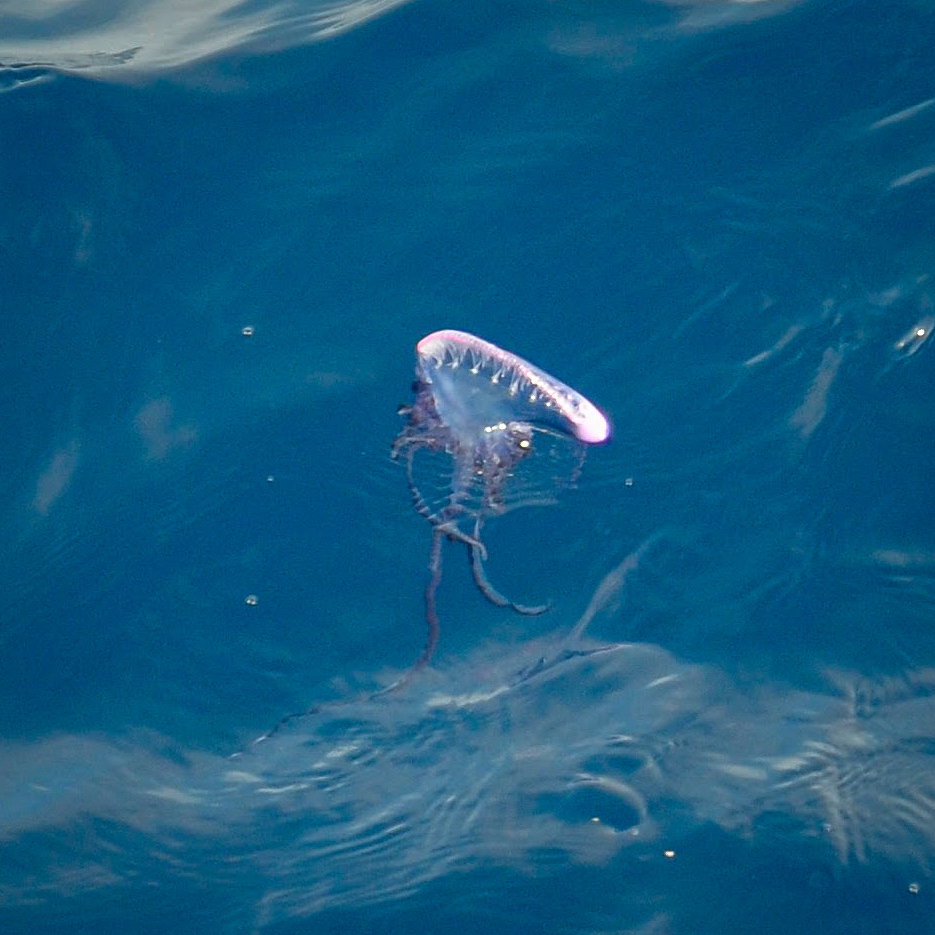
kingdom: Animalia
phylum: Cnidaria
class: Hydrozoa
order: Siphonophorae
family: Physaliidae
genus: Physalia
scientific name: Physalia physalis
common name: Portuguese man-of-war
